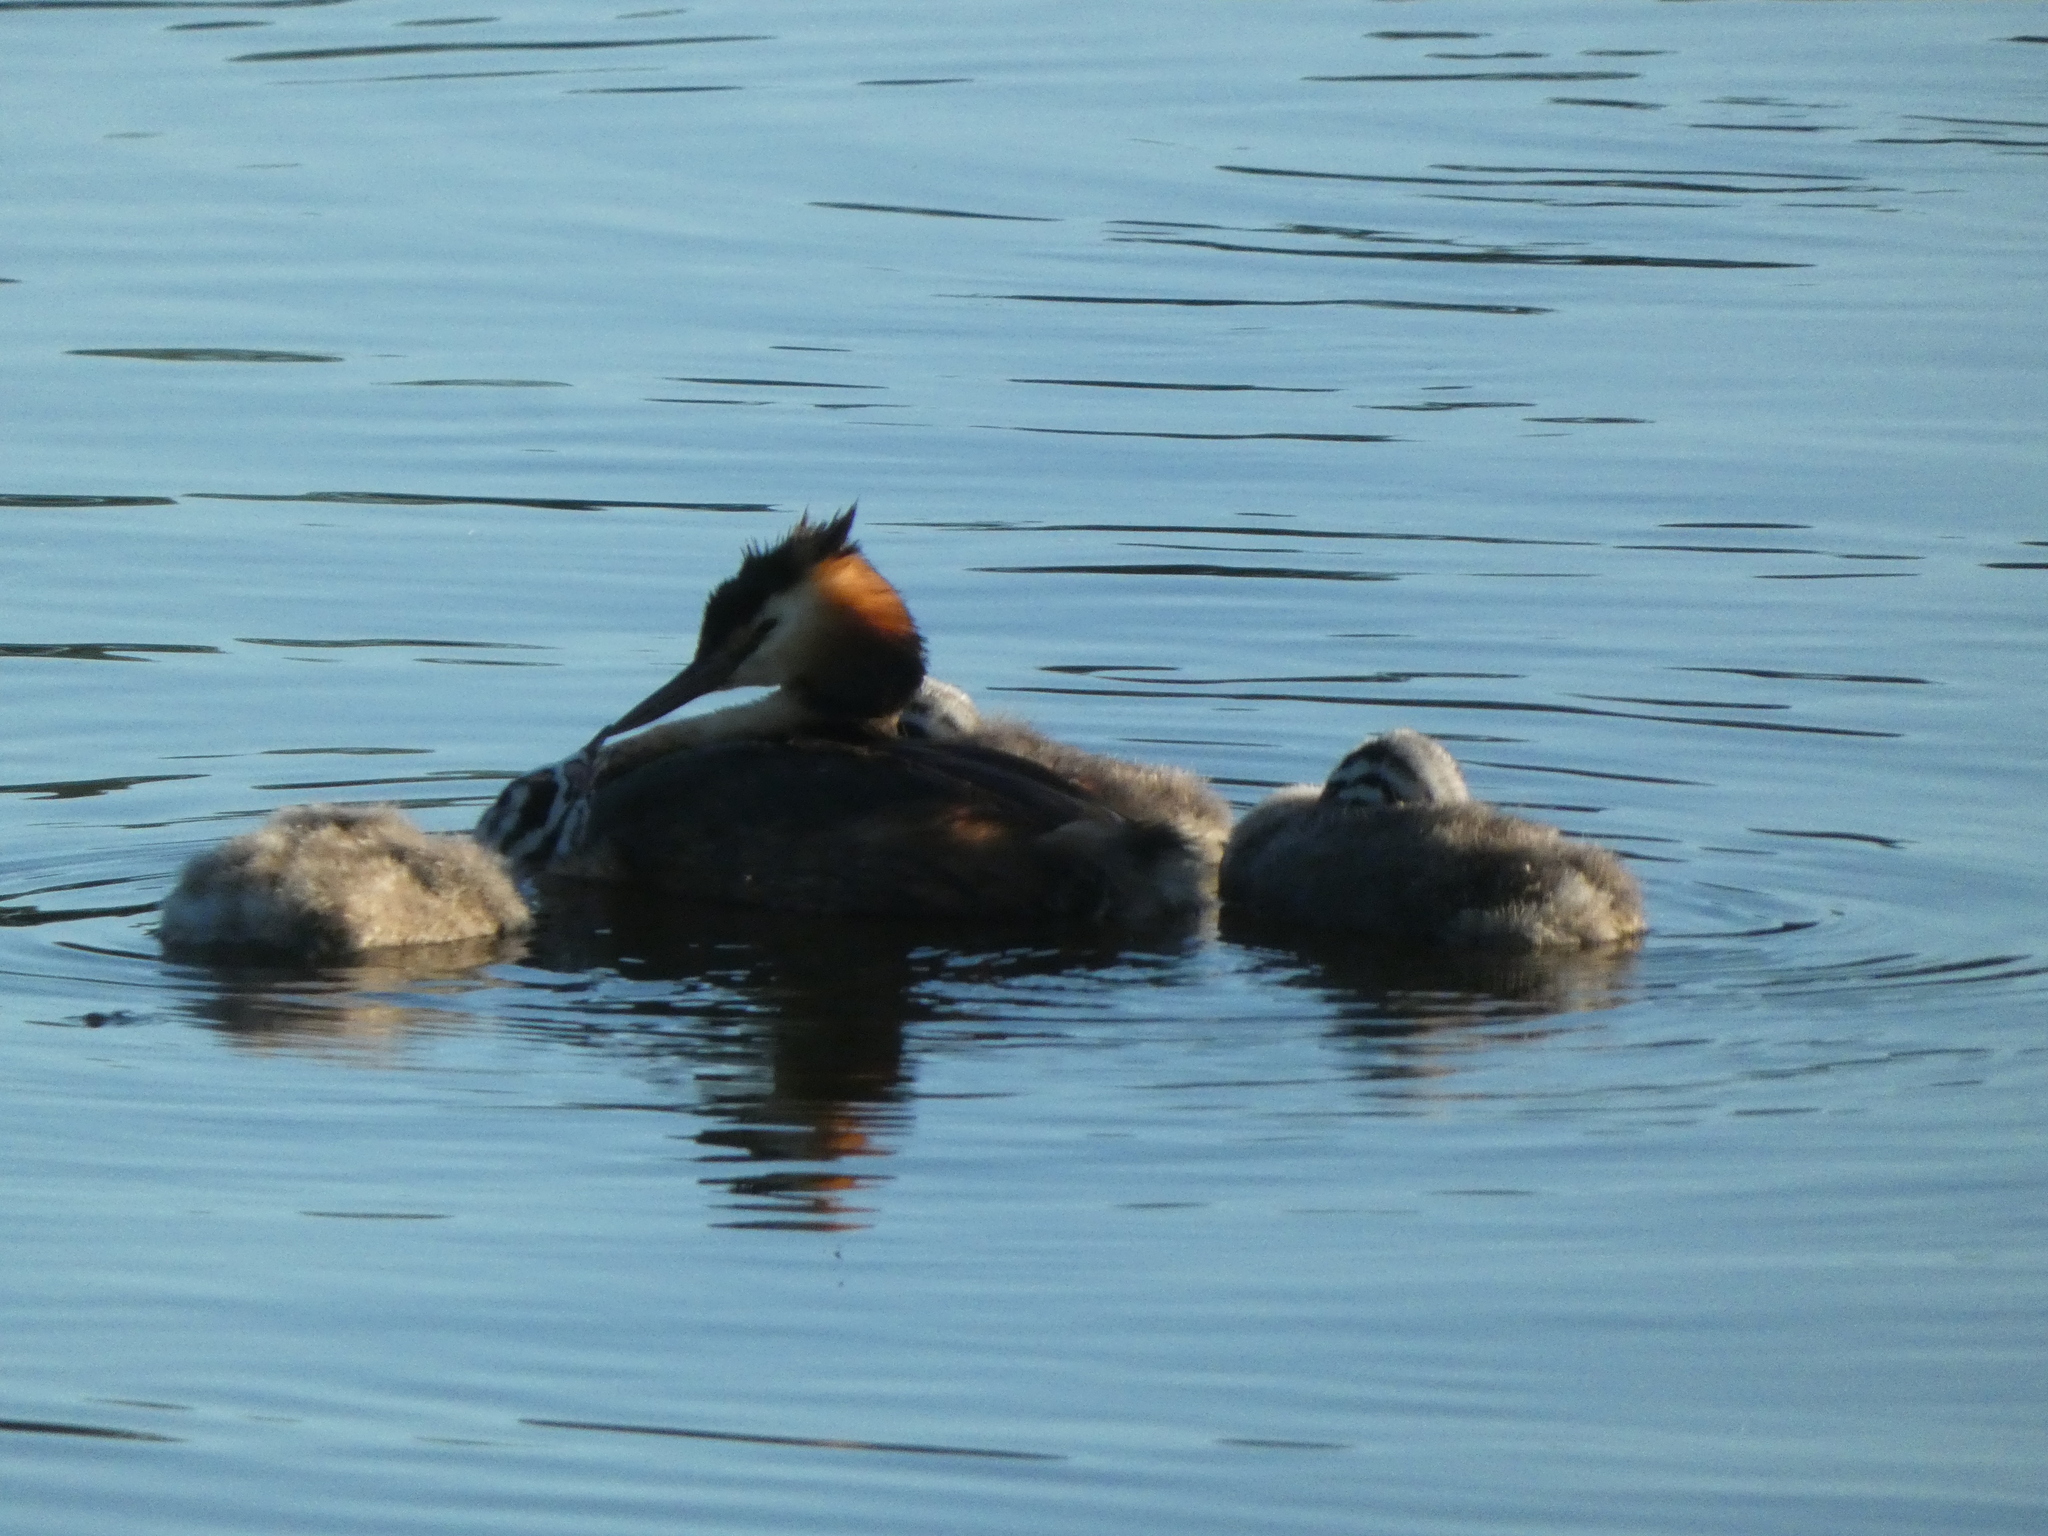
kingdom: Animalia
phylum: Chordata
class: Aves
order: Podicipediformes
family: Podicipedidae
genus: Podiceps
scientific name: Podiceps cristatus
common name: Great crested grebe
